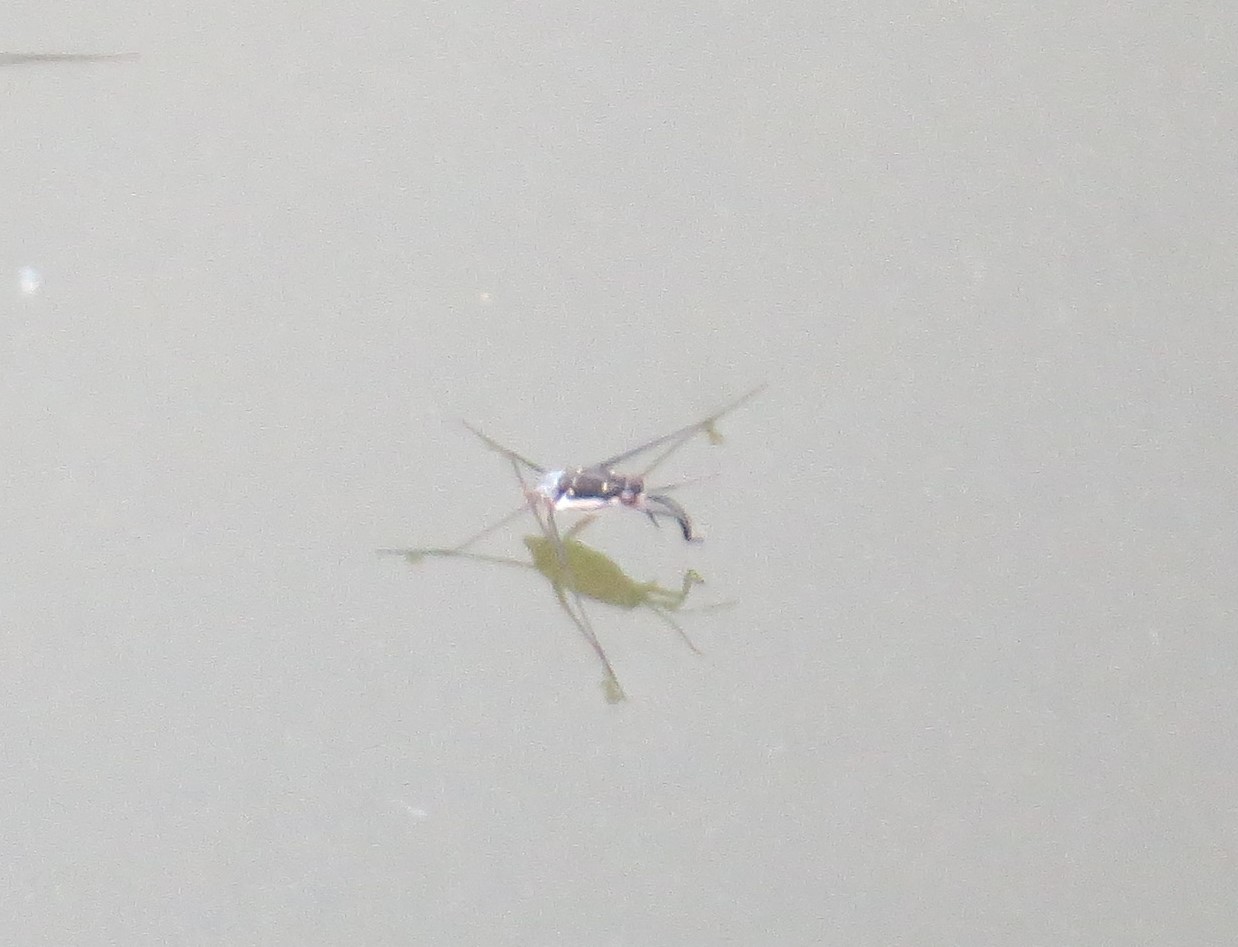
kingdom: Animalia
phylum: Arthropoda
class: Insecta
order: Hemiptera
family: Gerridae
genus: Trepobates
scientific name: Trepobates subnitidus
